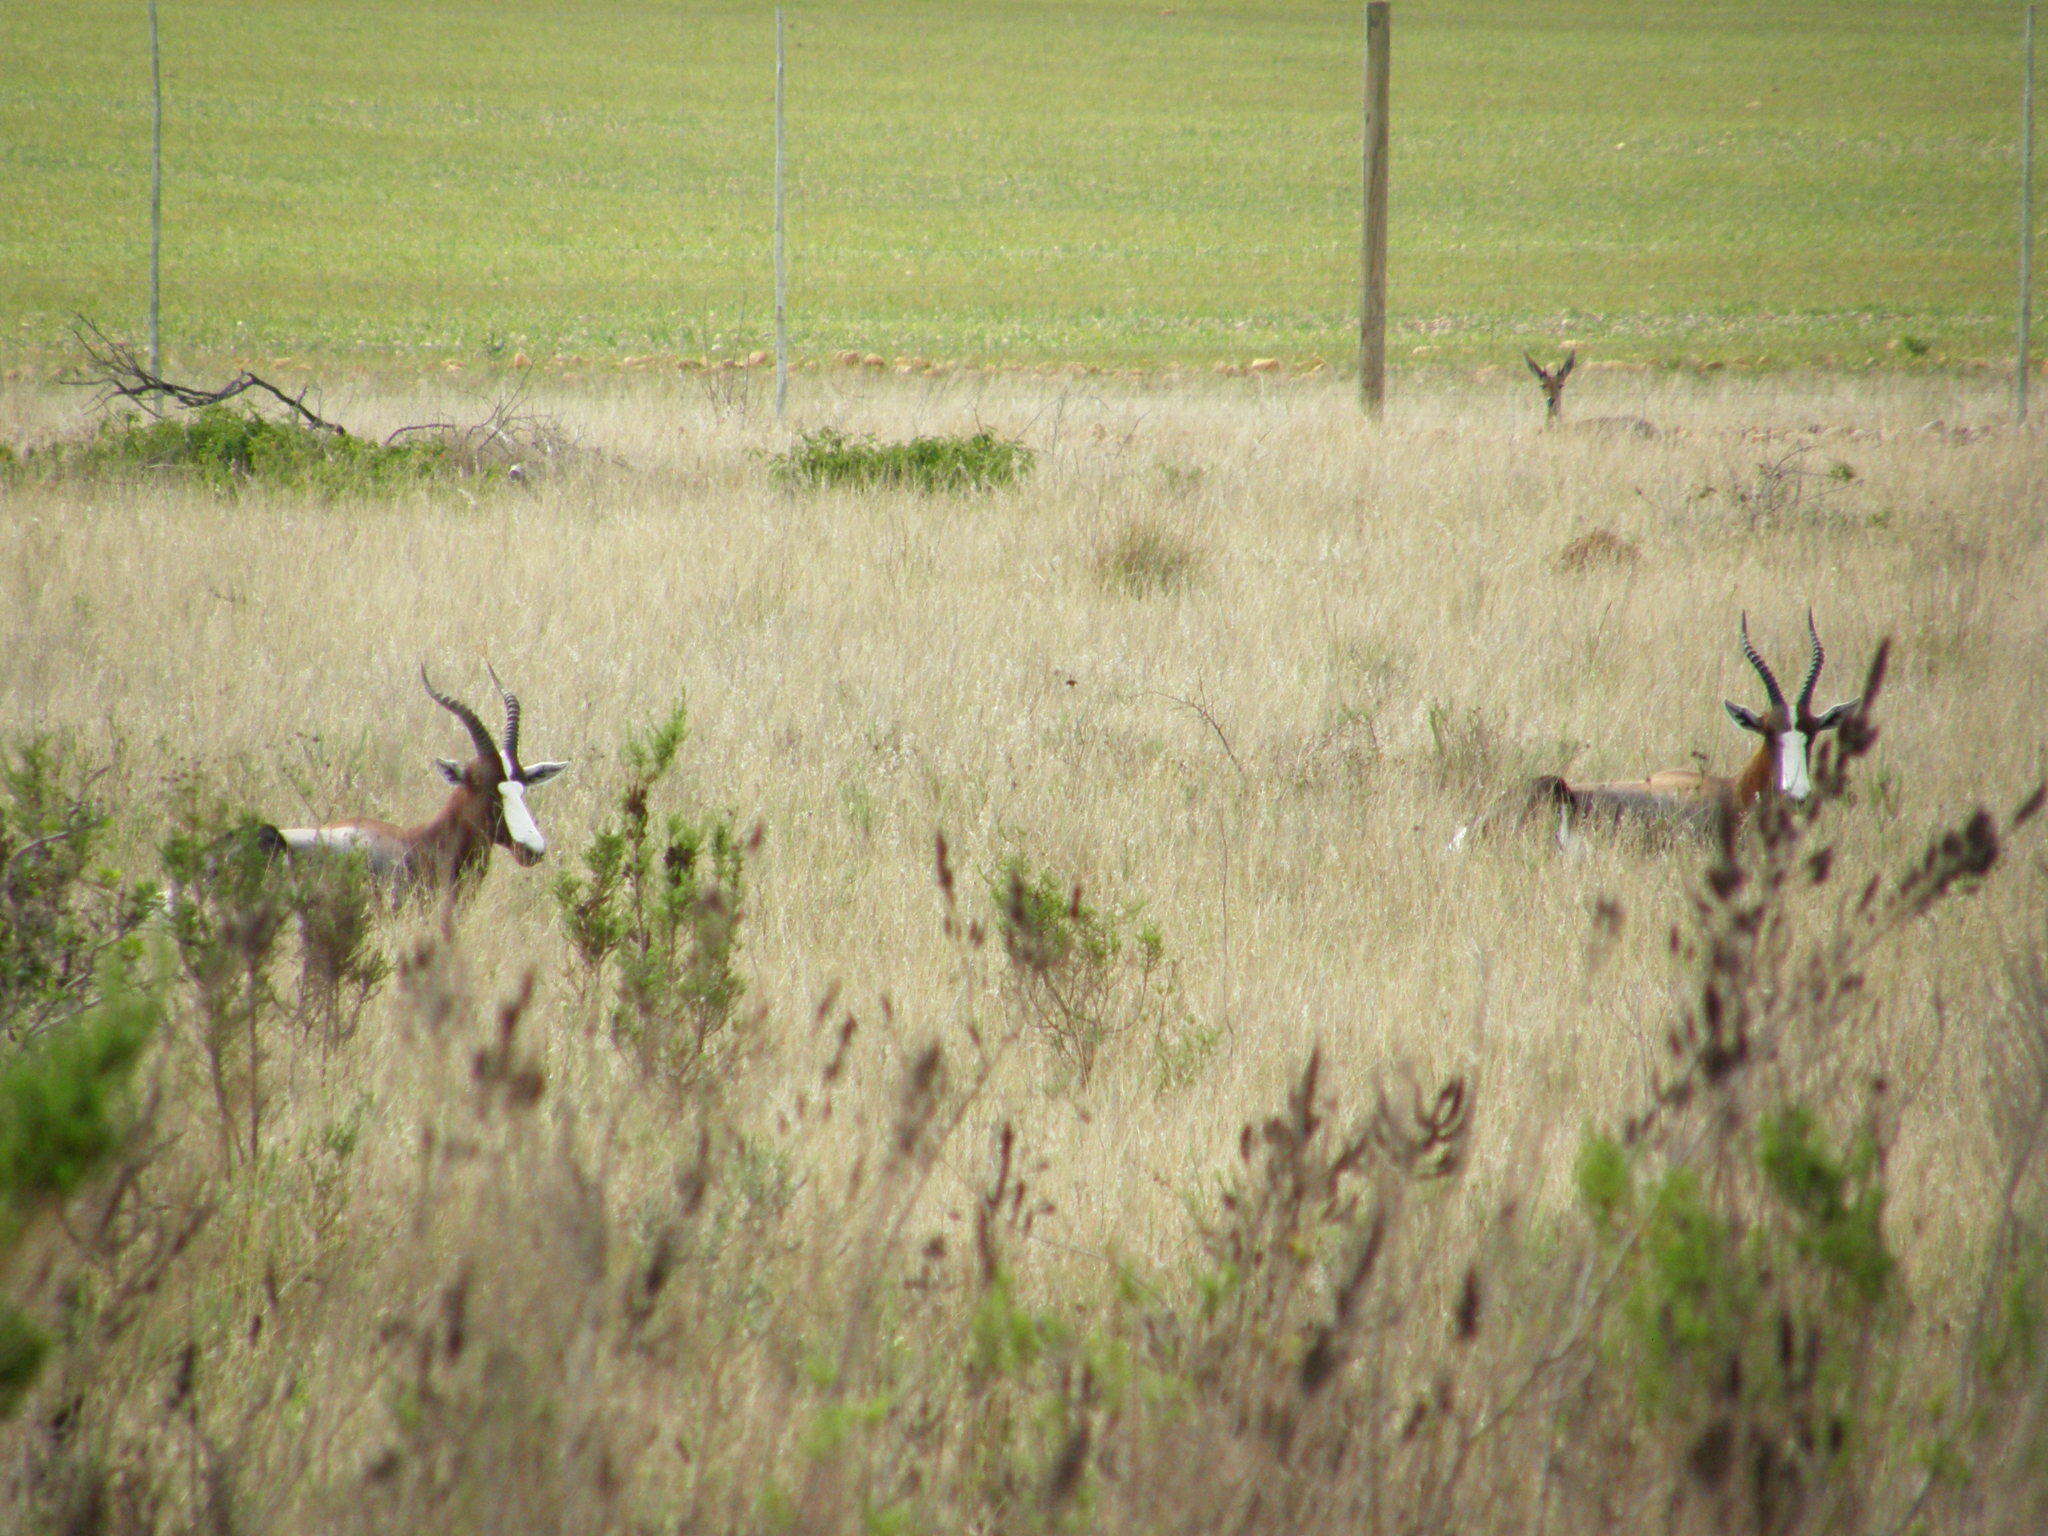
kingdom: Animalia
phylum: Chordata
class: Mammalia
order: Artiodactyla
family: Bovidae
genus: Damaliscus
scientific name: Damaliscus pygargus
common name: Bontebok
